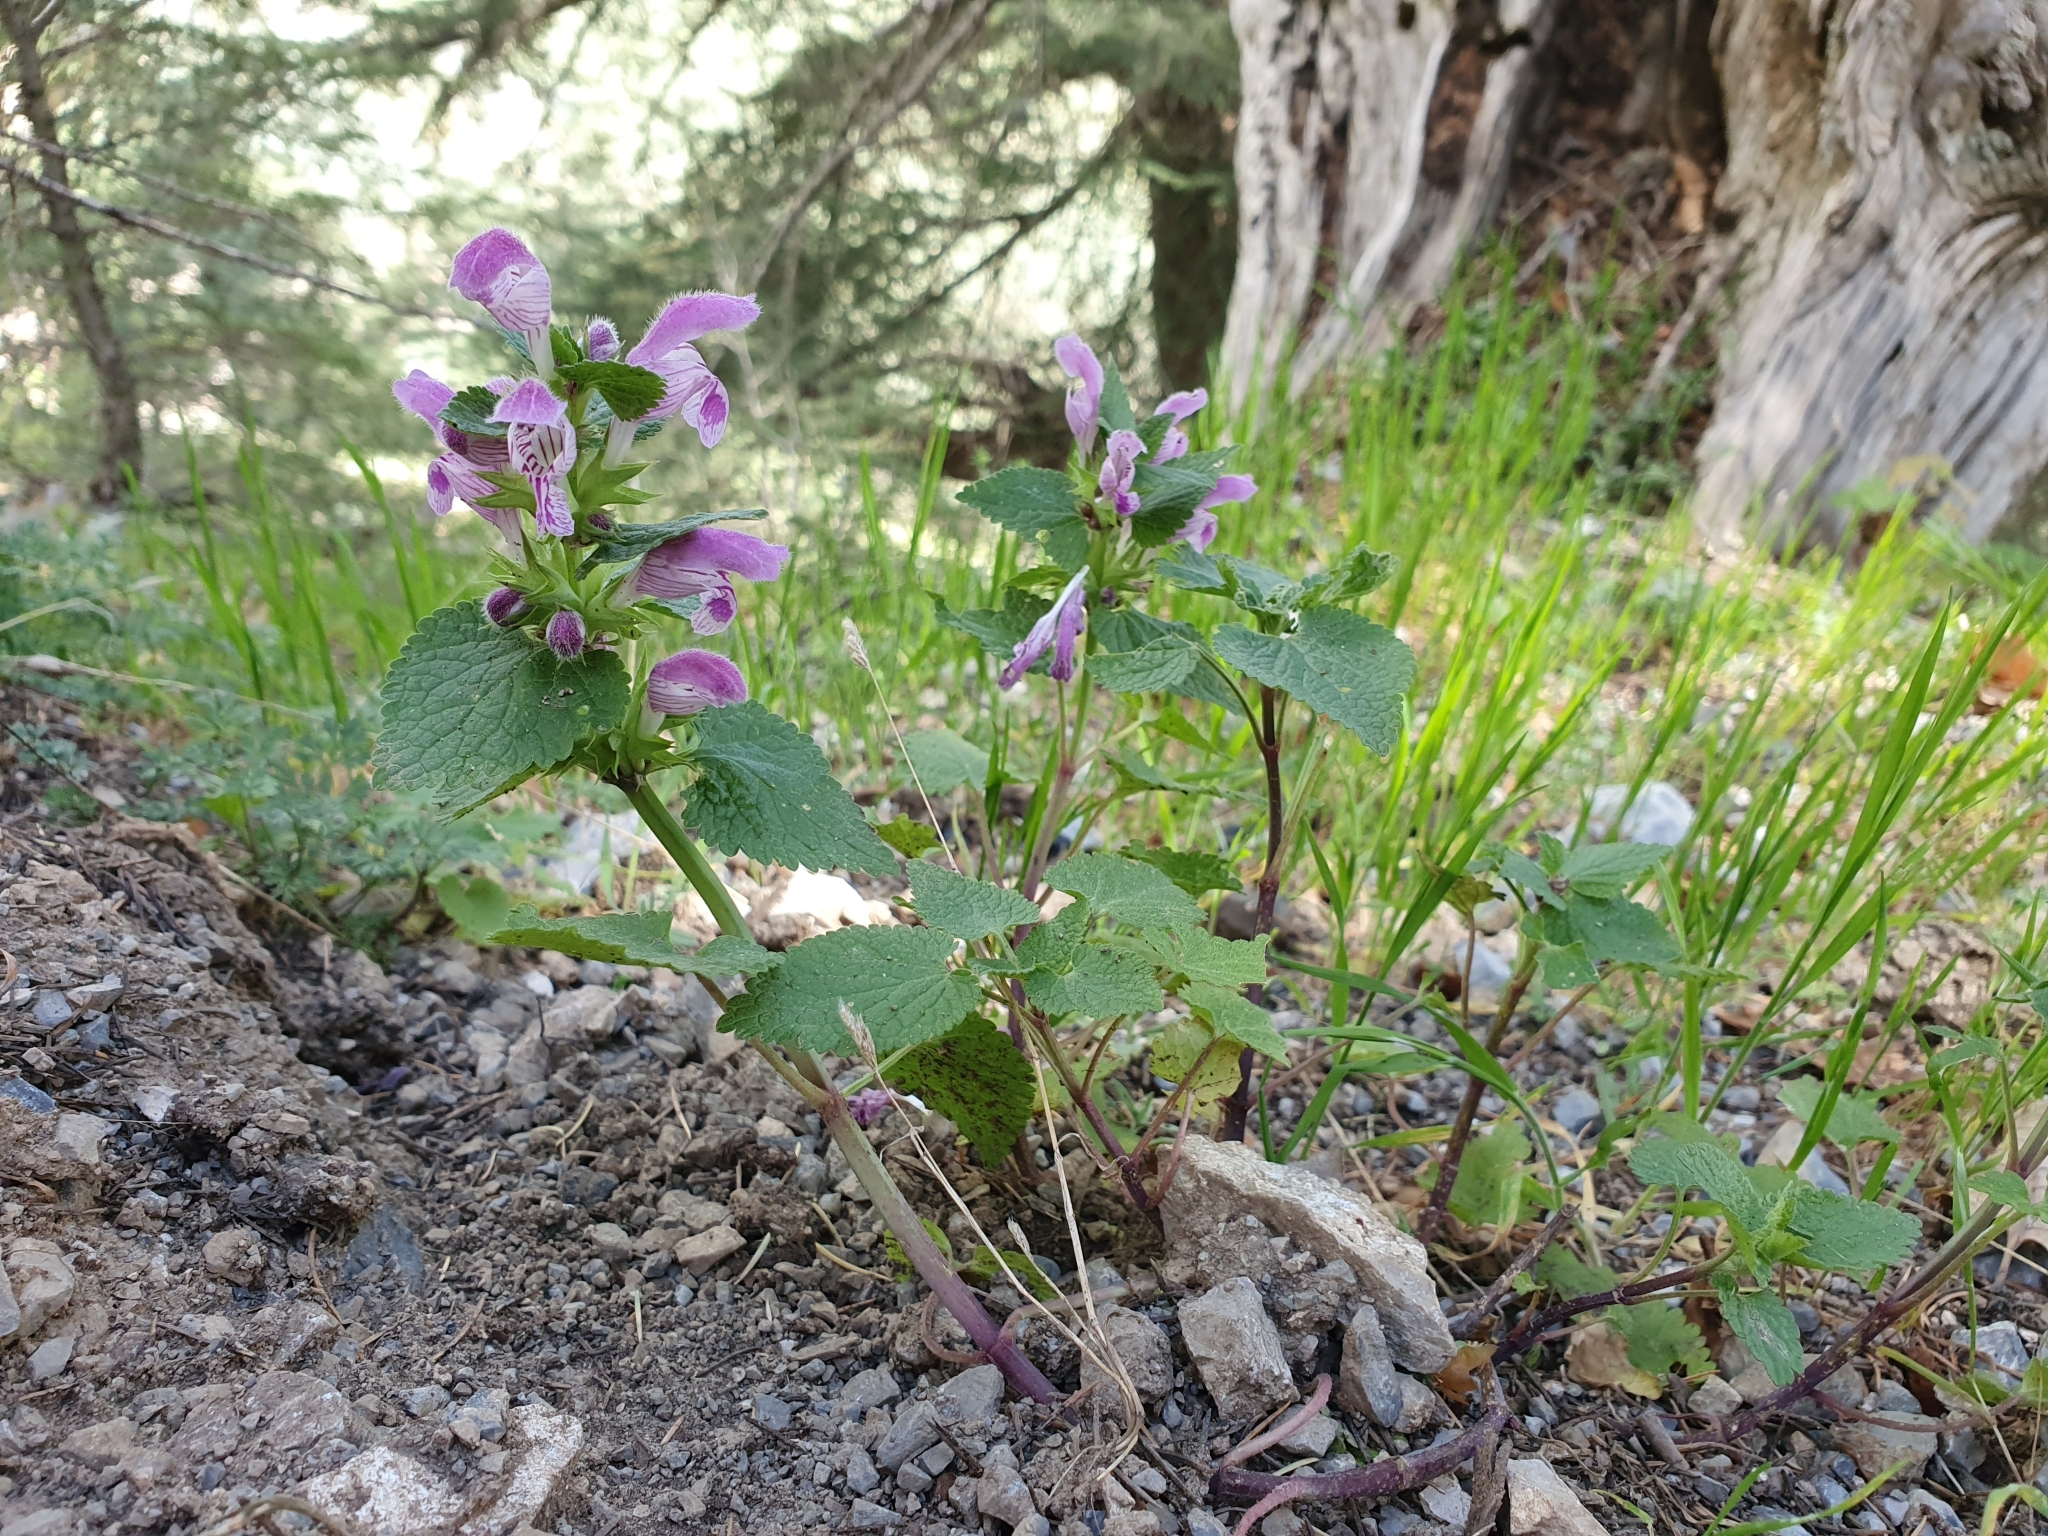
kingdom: Plantae
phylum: Tracheophyta
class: Magnoliopsida
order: Lamiales
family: Lamiaceae
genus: Lamium
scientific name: Lamium garganicum
